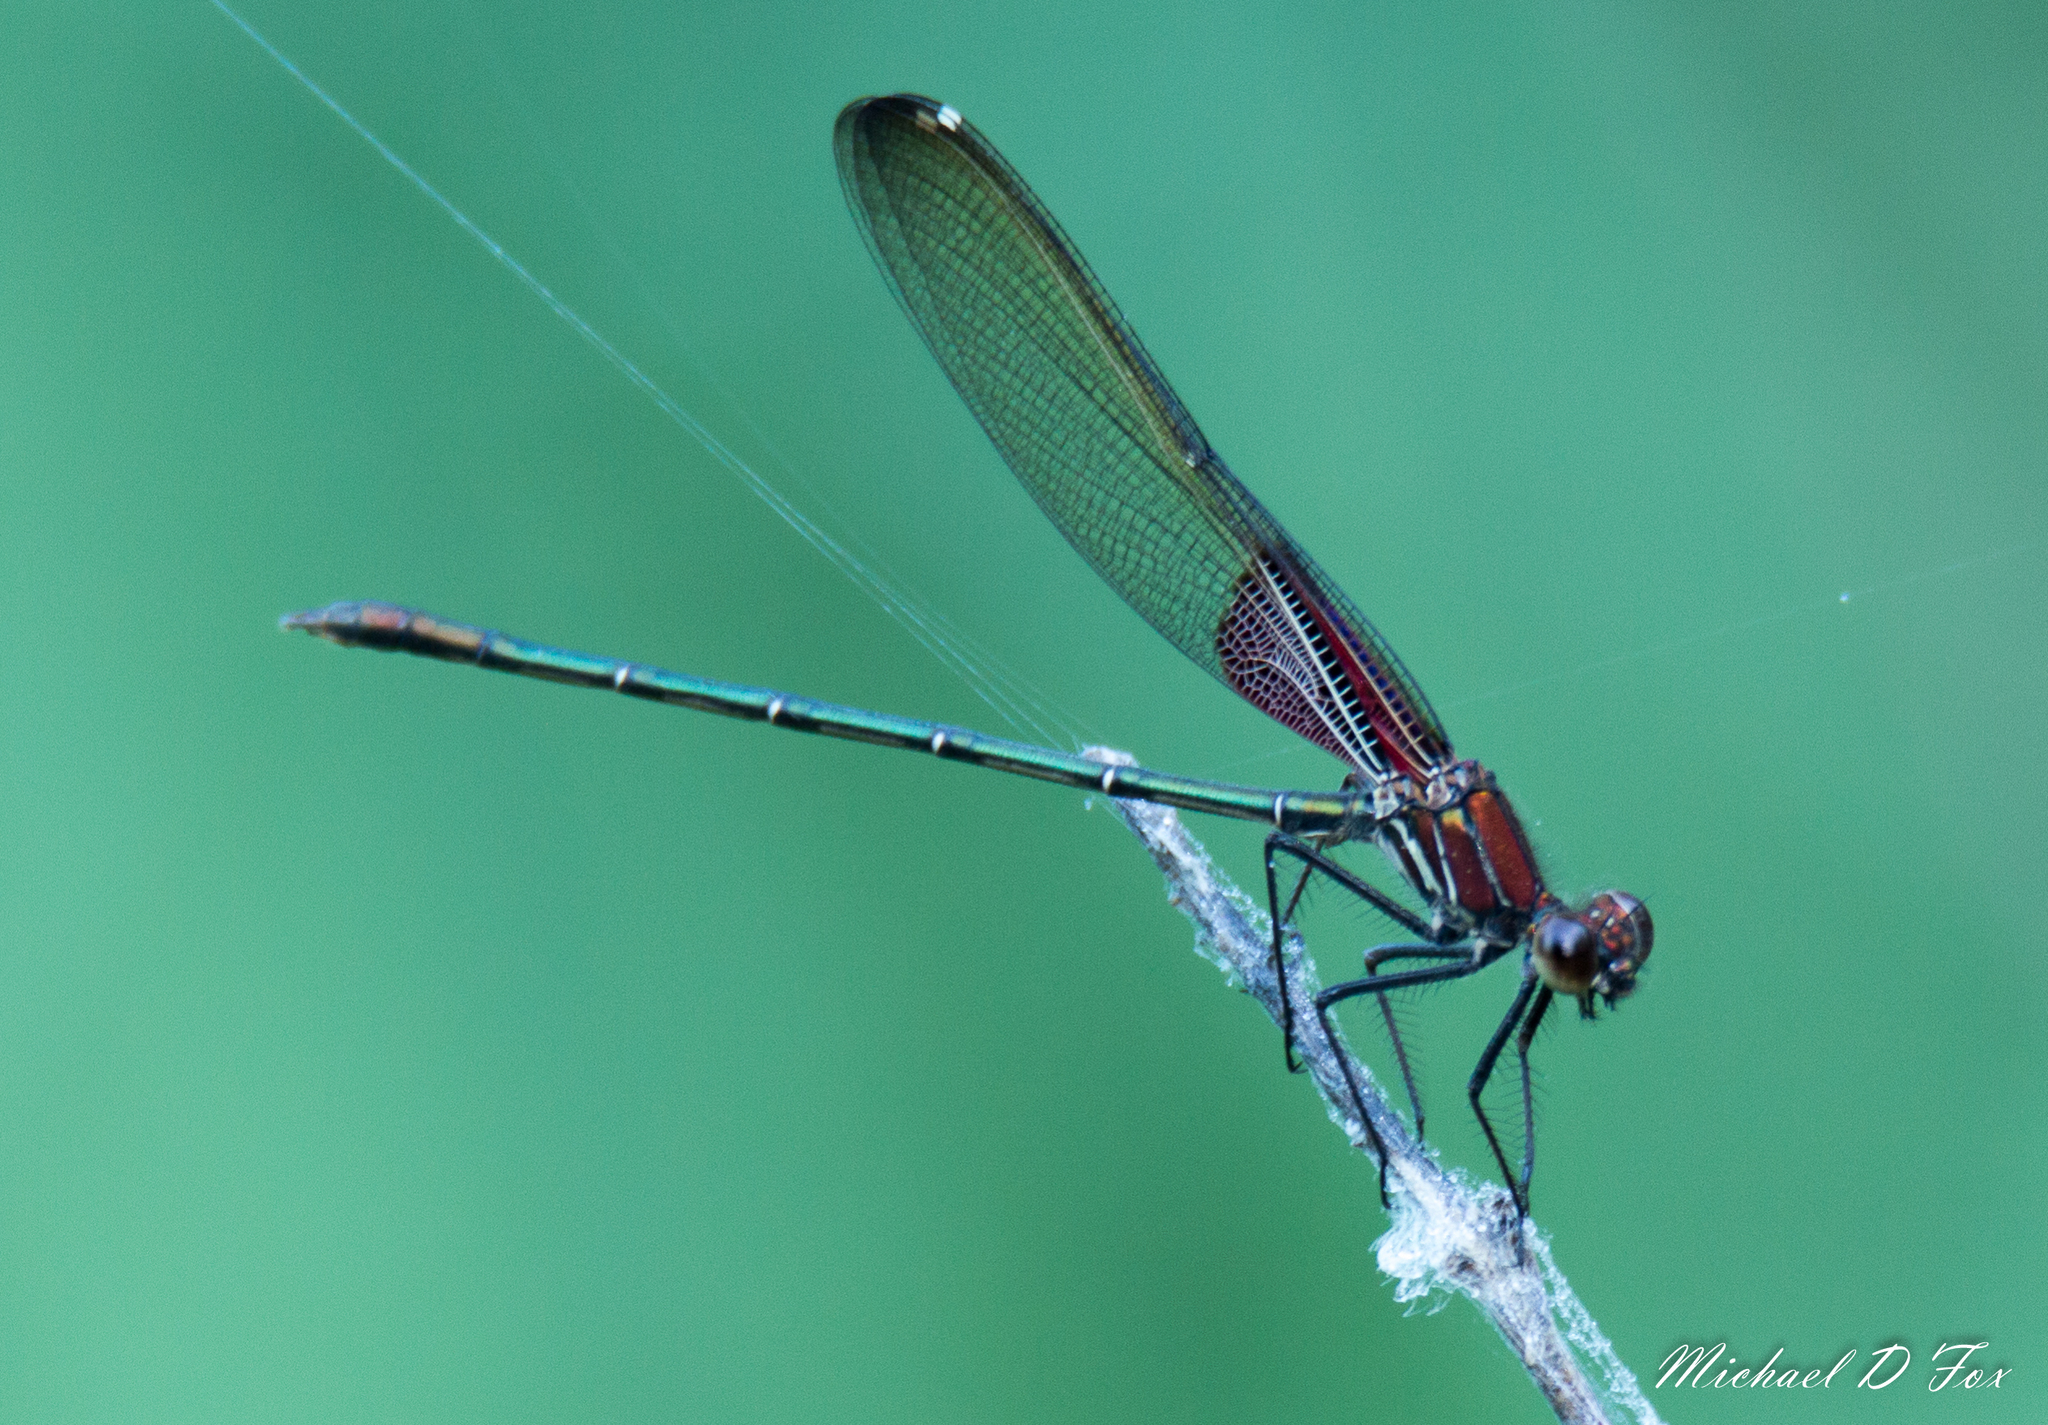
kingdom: Animalia
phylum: Arthropoda
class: Insecta
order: Odonata
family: Calopterygidae
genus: Hetaerina
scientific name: Hetaerina americana
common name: American rubyspot
